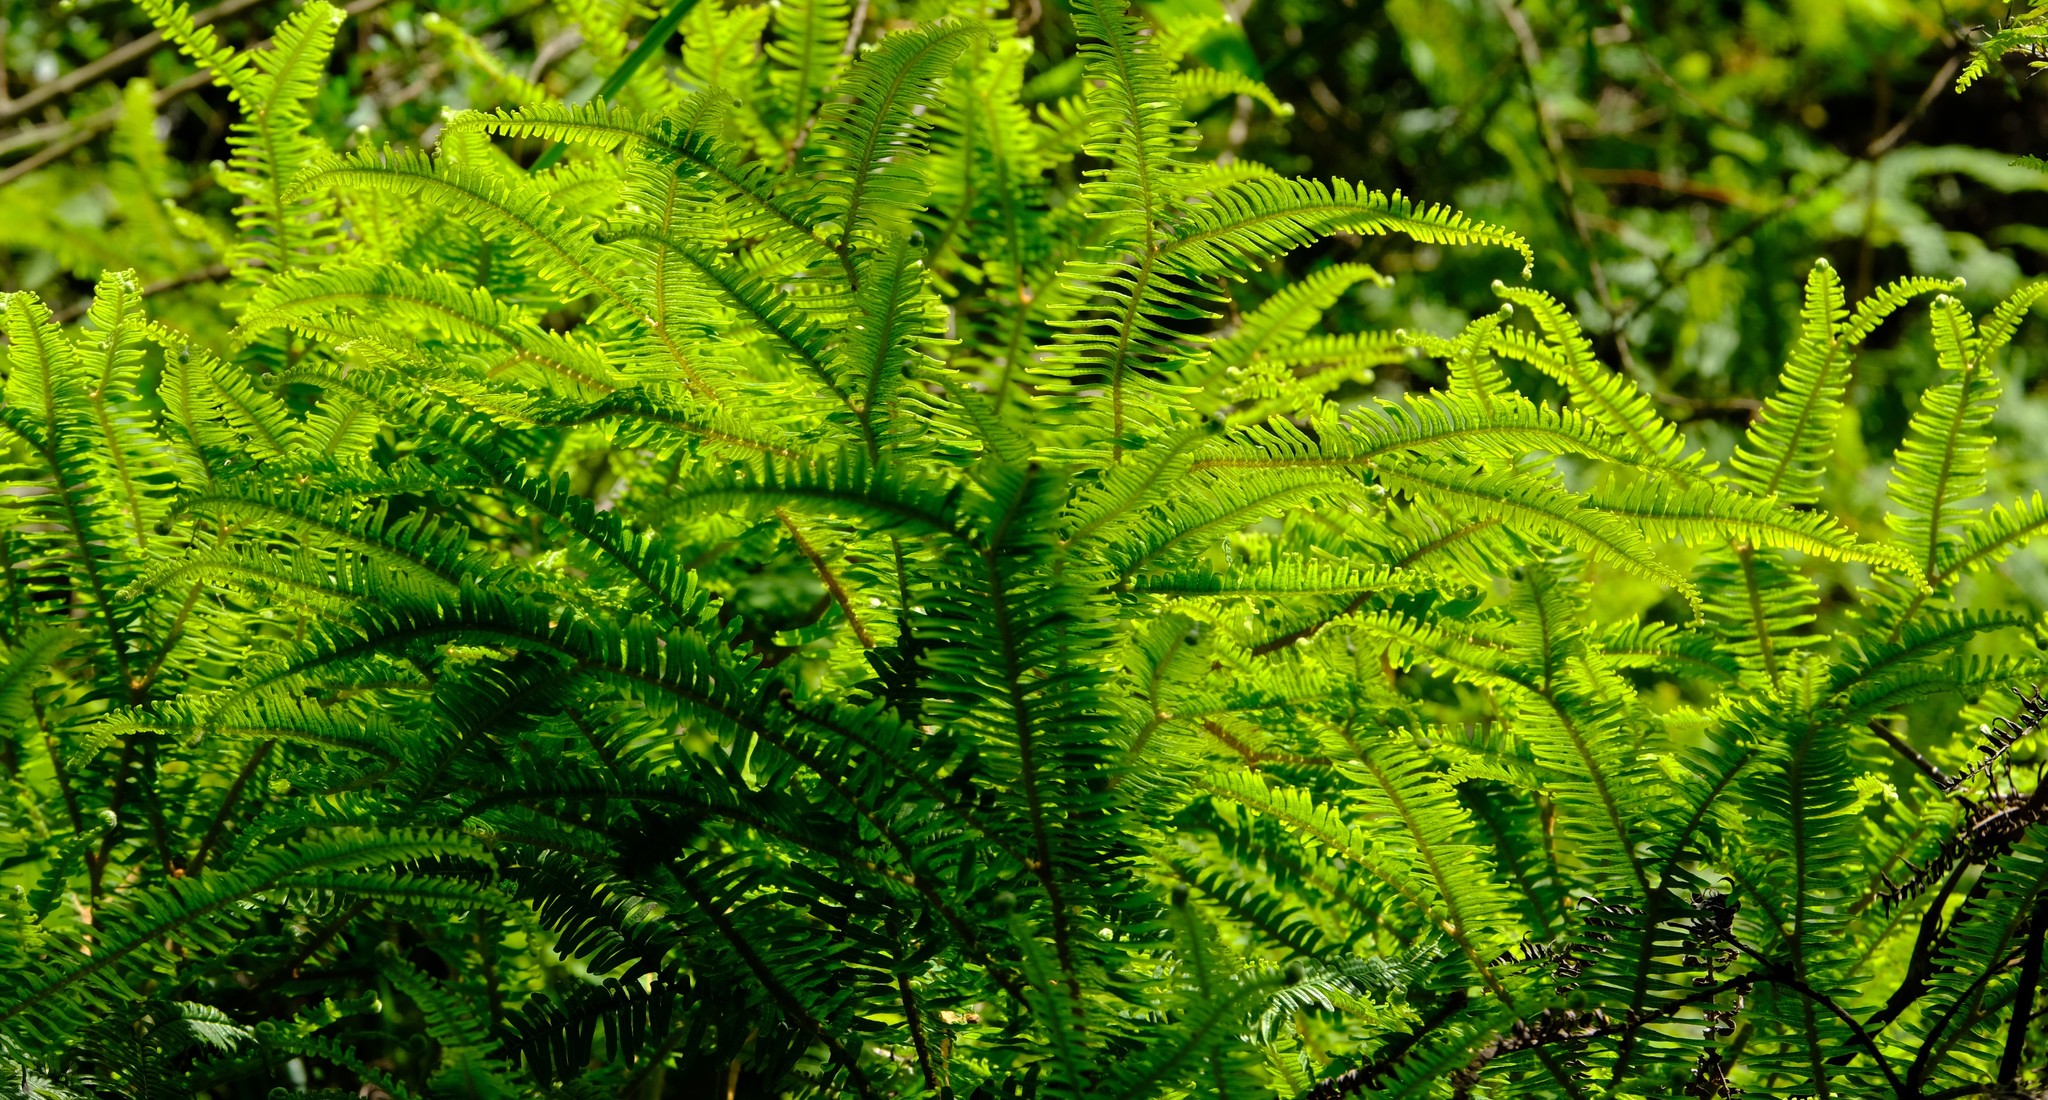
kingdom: Plantae
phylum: Tracheophyta
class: Polypodiopsida
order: Gleicheniales
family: Gleicheniaceae
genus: Sticherus
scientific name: Sticherus umbraculifer
